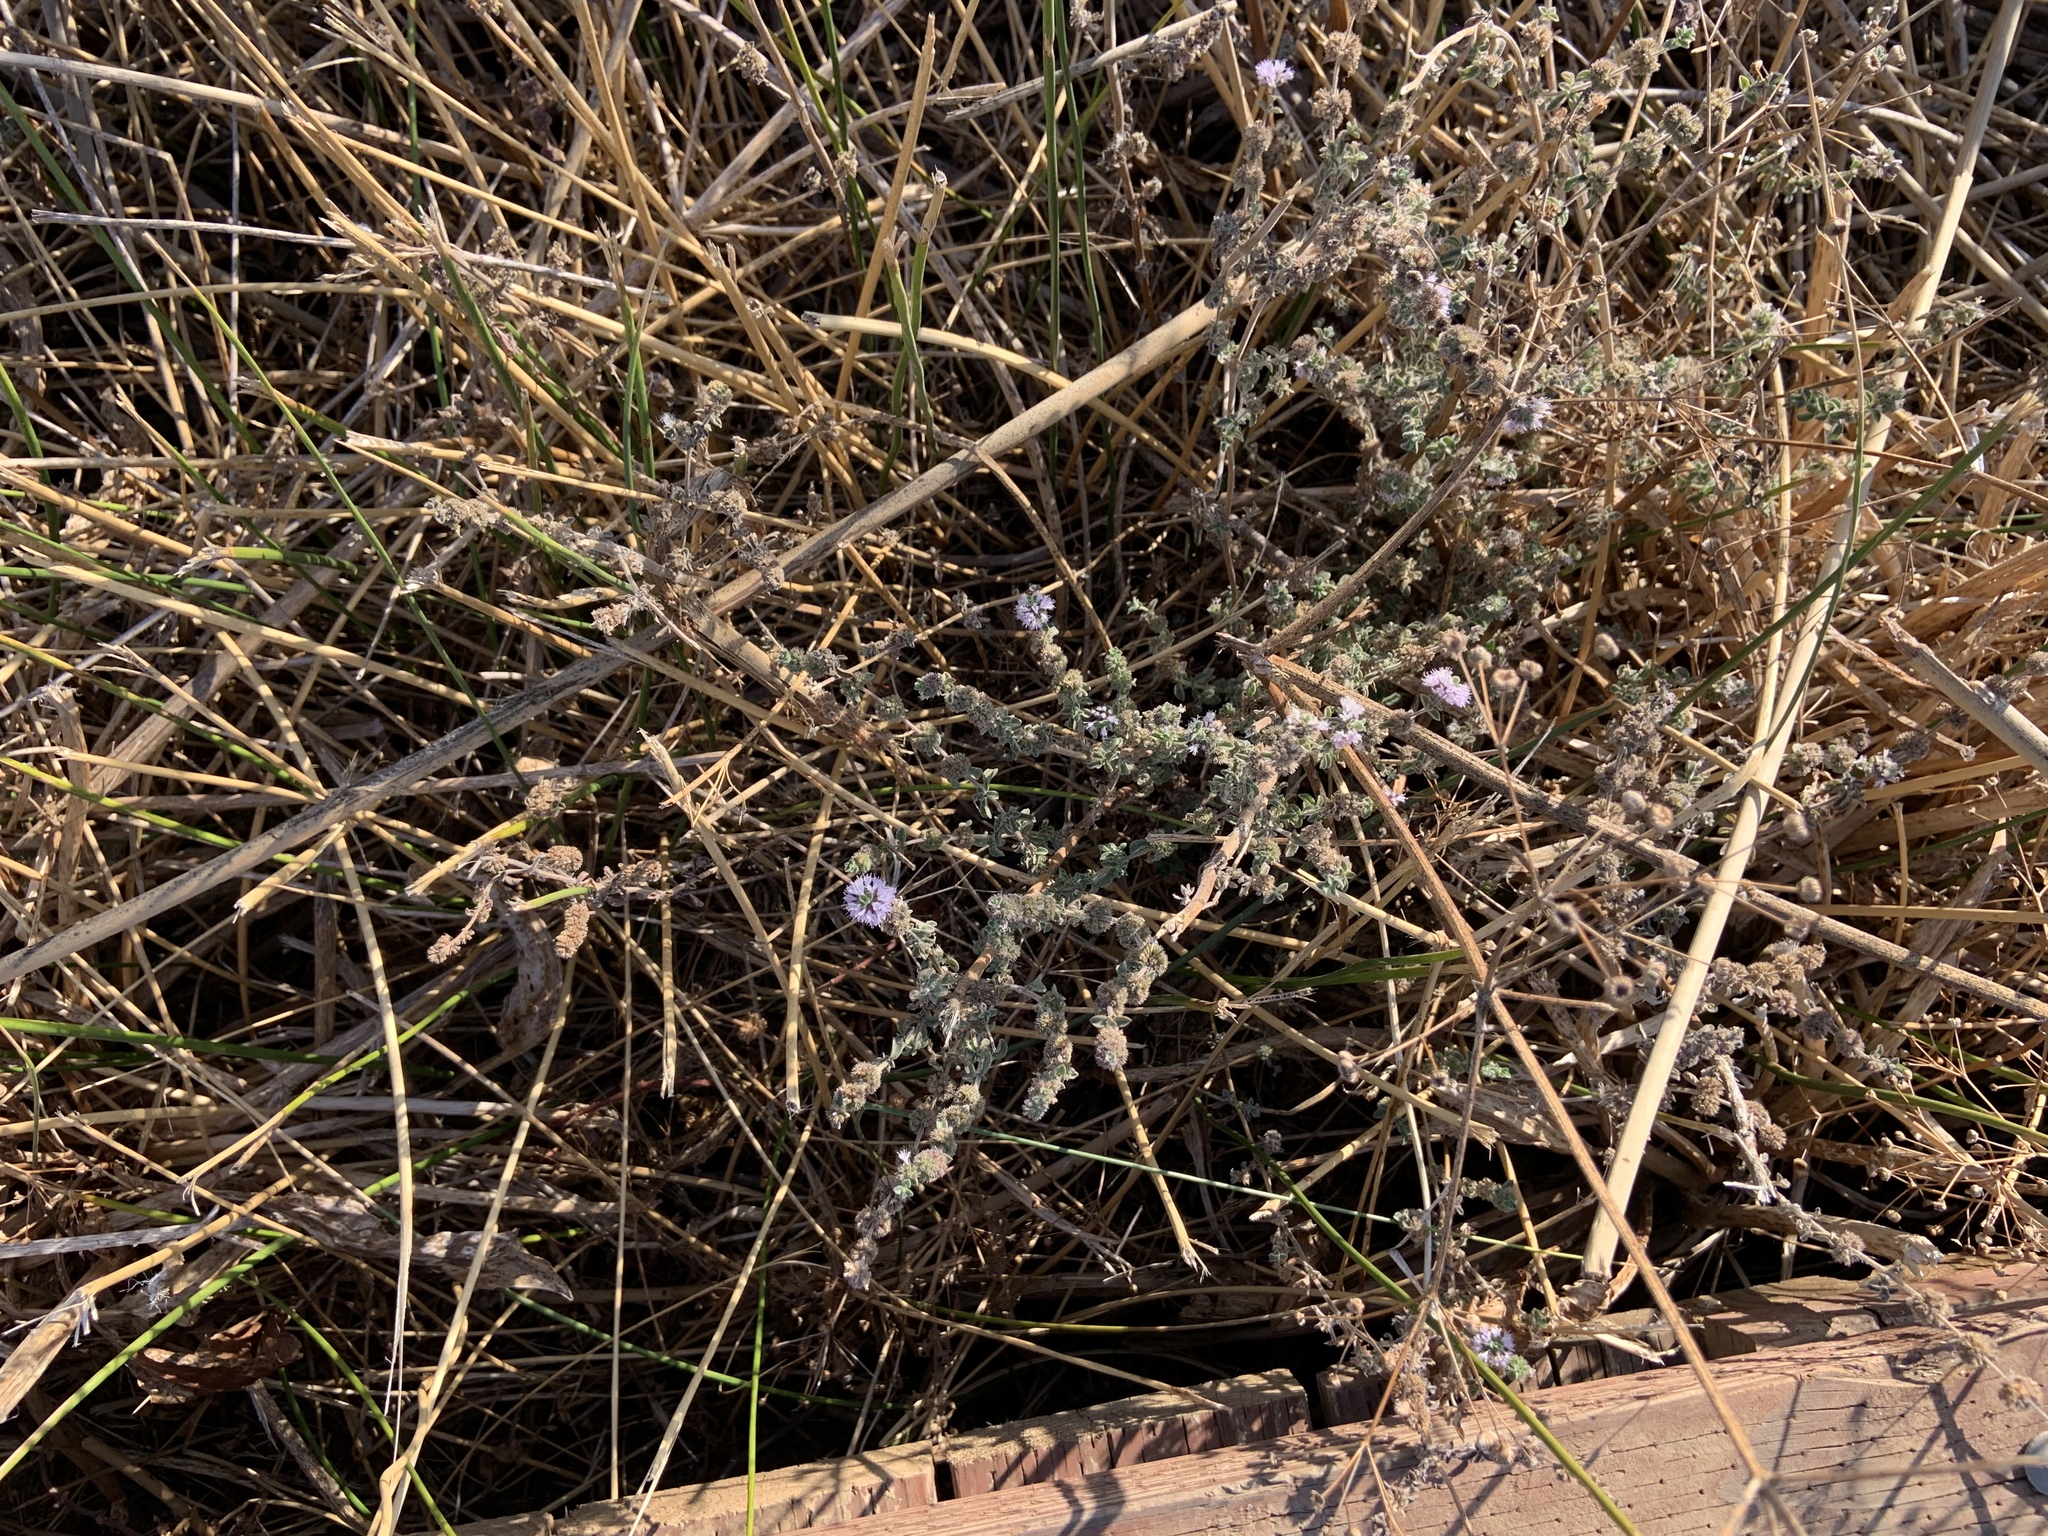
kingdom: Plantae
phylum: Tracheophyta
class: Magnoliopsida
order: Lamiales
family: Lamiaceae
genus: Mentha
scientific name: Mentha pulegium
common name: Pennyroyal
